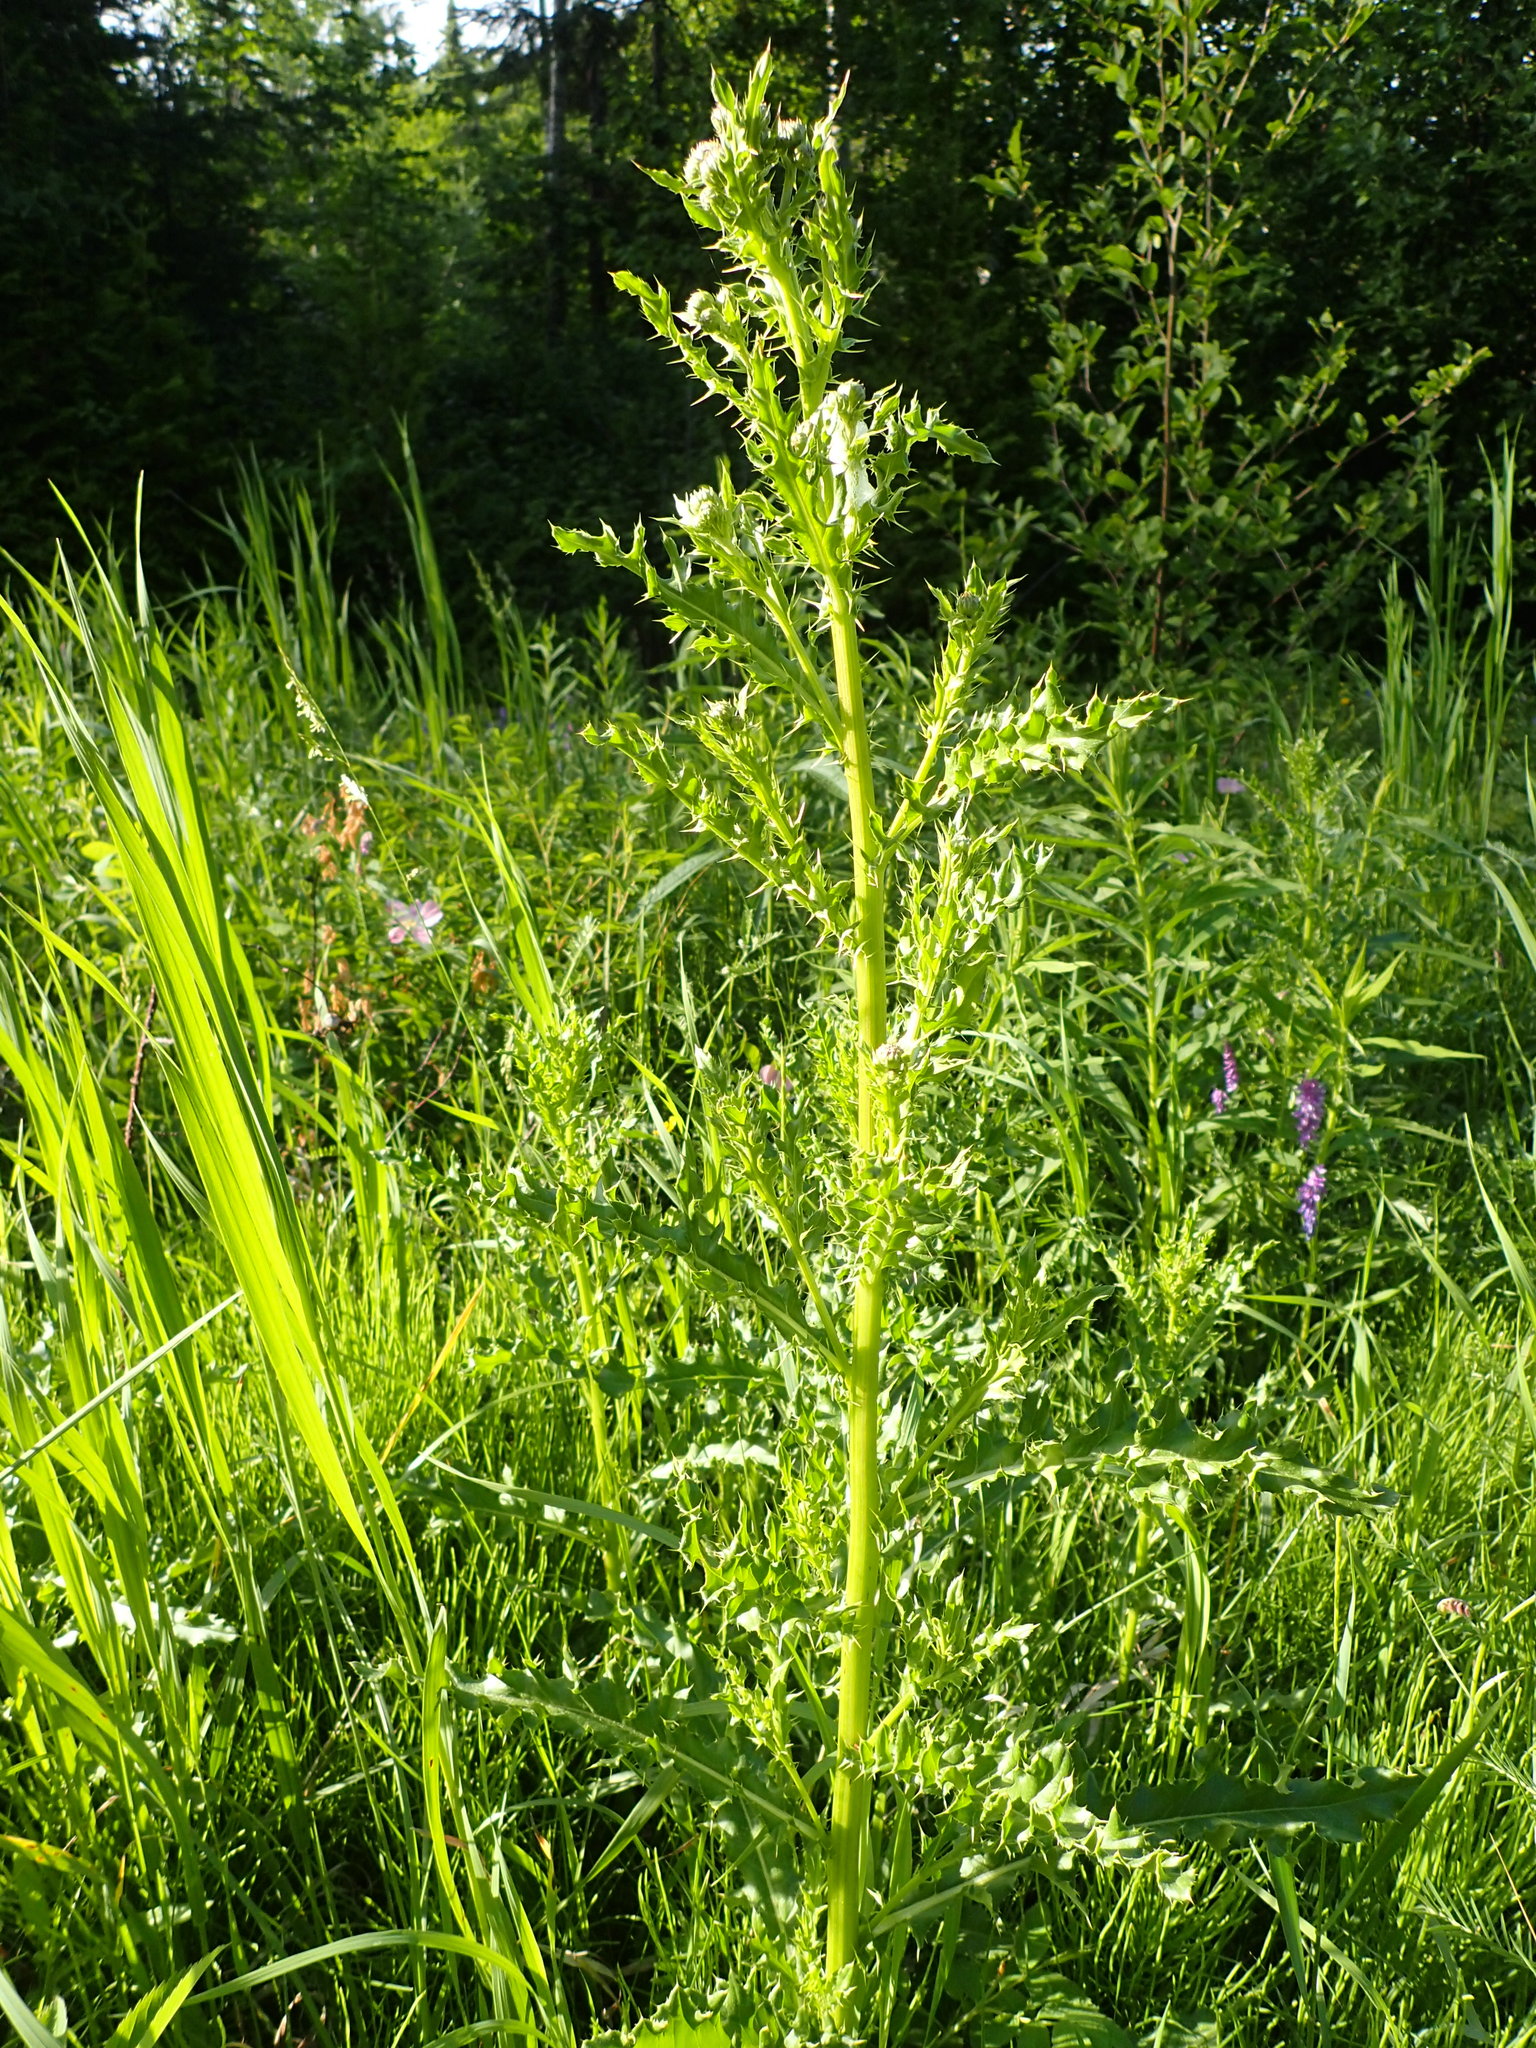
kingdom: Plantae
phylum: Tracheophyta
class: Magnoliopsida
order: Asterales
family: Asteraceae
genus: Cirsium
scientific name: Cirsium arvense
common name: Creeping thistle
